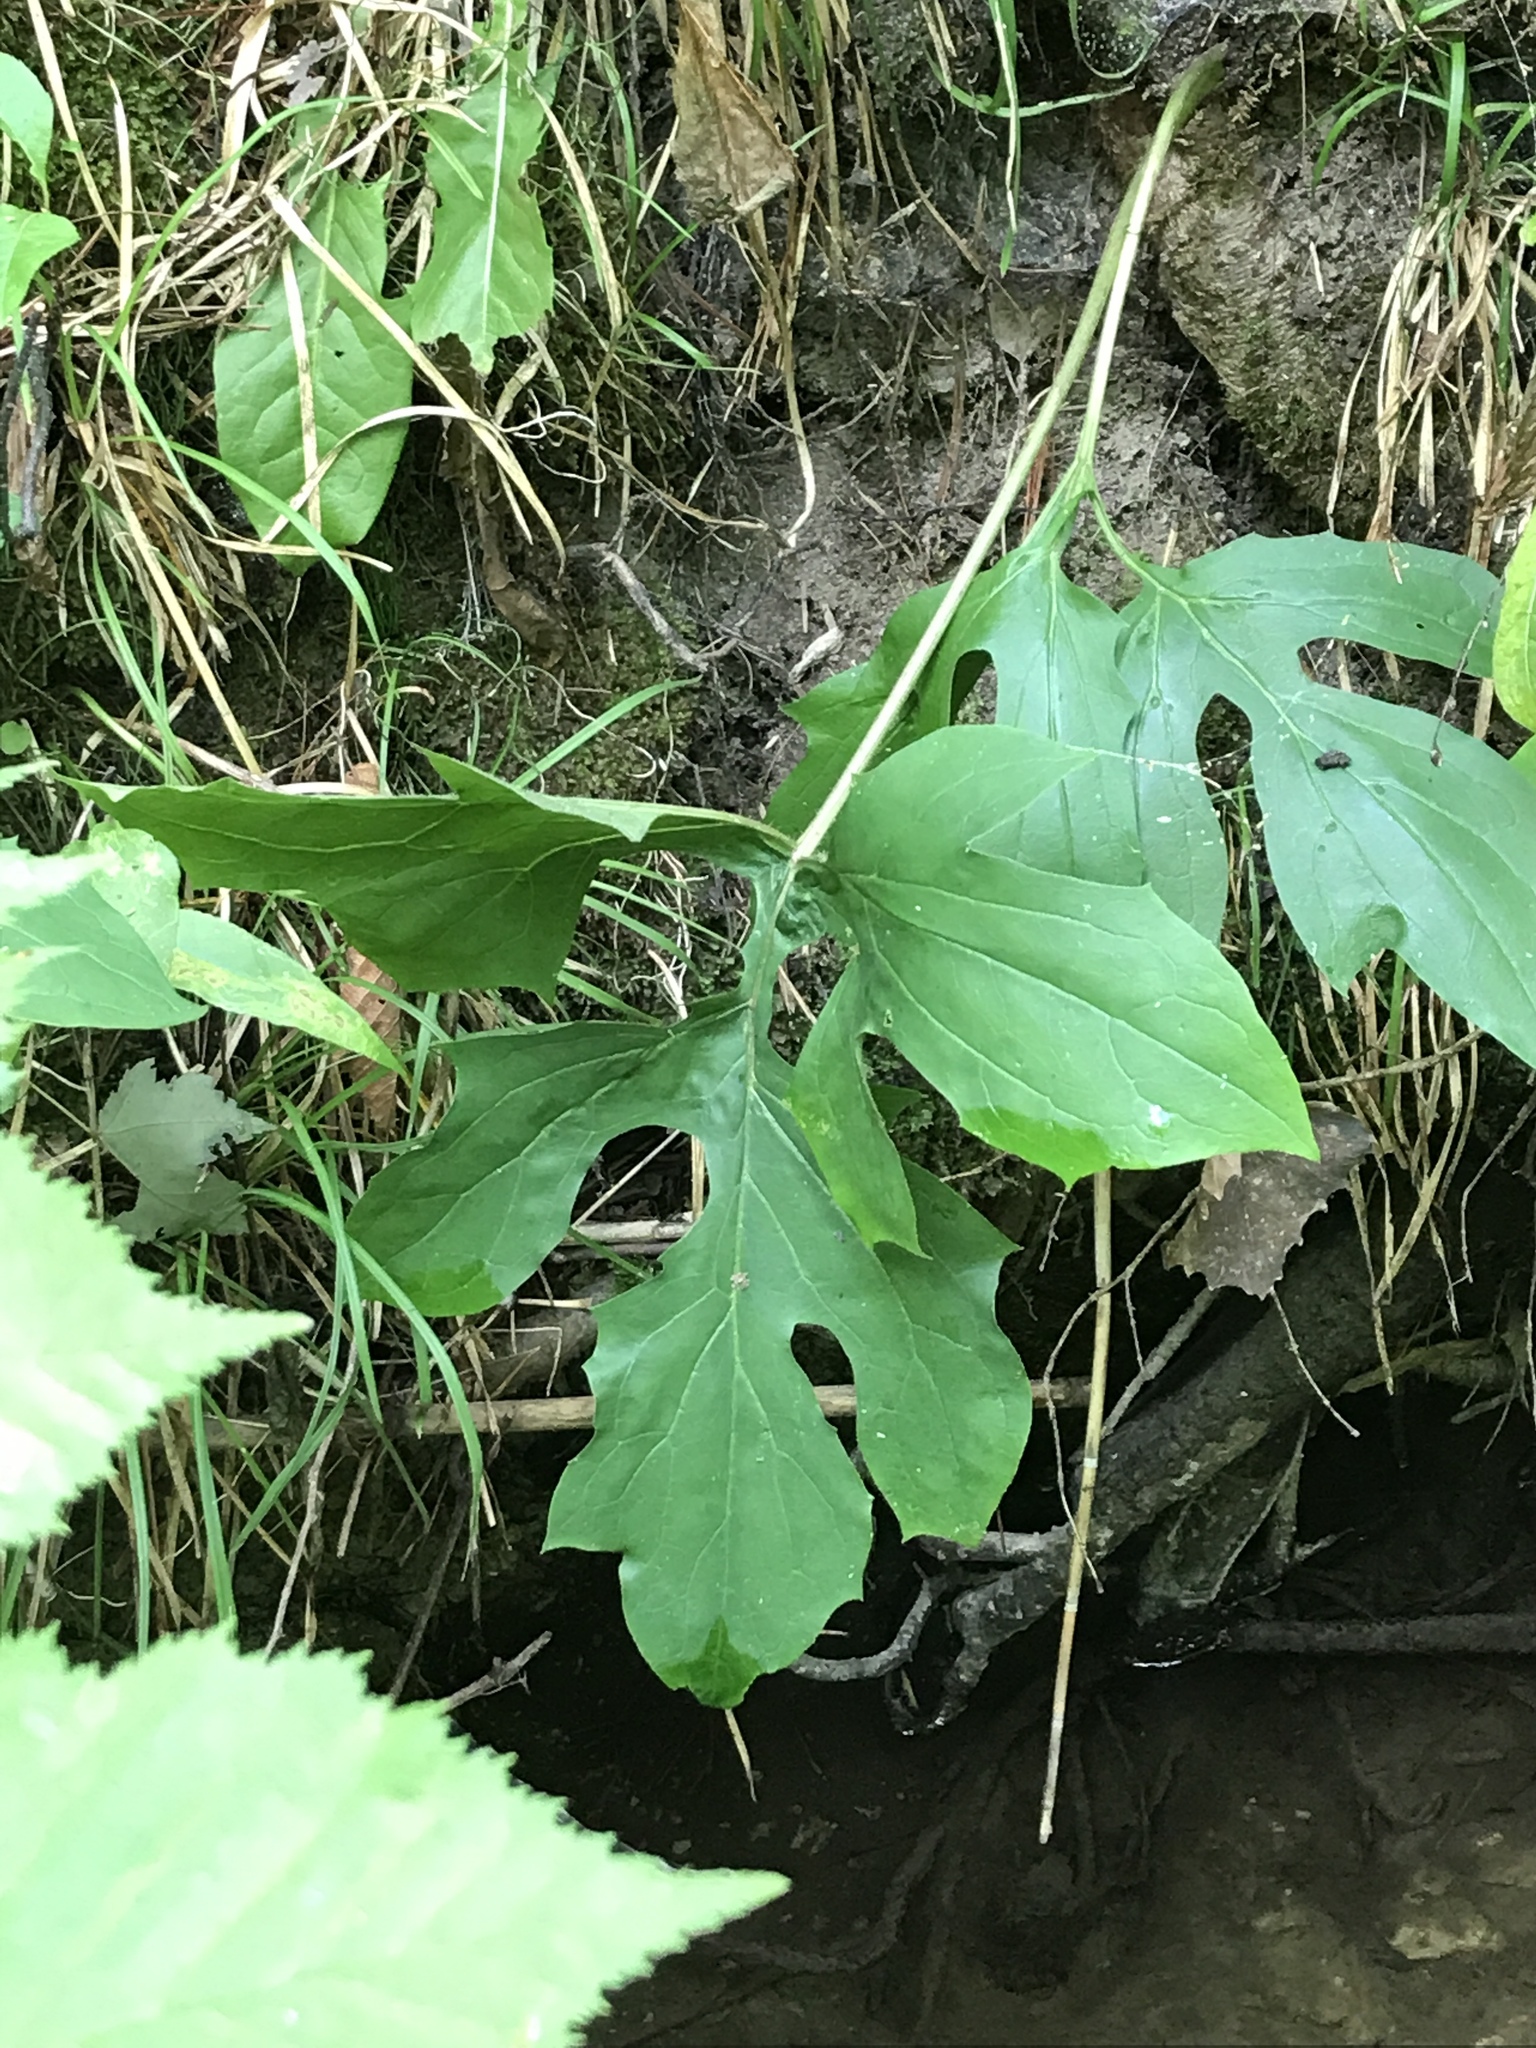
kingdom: Plantae
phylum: Tracheophyta
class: Magnoliopsida
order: Asterales
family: Asteraceae
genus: Nabalus
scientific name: Nabalus albus
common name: White rattlesnakeroot
